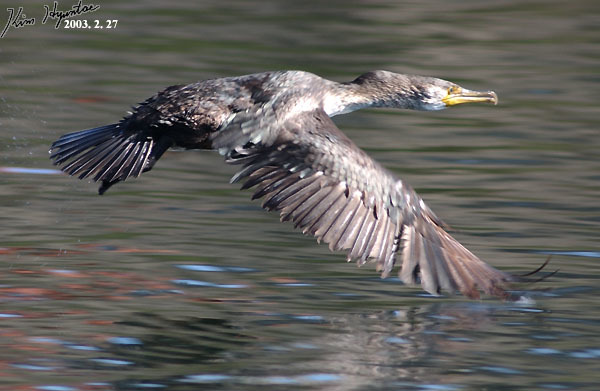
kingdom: Animalia
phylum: Chordata
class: Aves
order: Suliformes
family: Phalacrocoracidae
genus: Phalacrocorax
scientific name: Phalacrocorax capillatus
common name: Japanese cormorant
